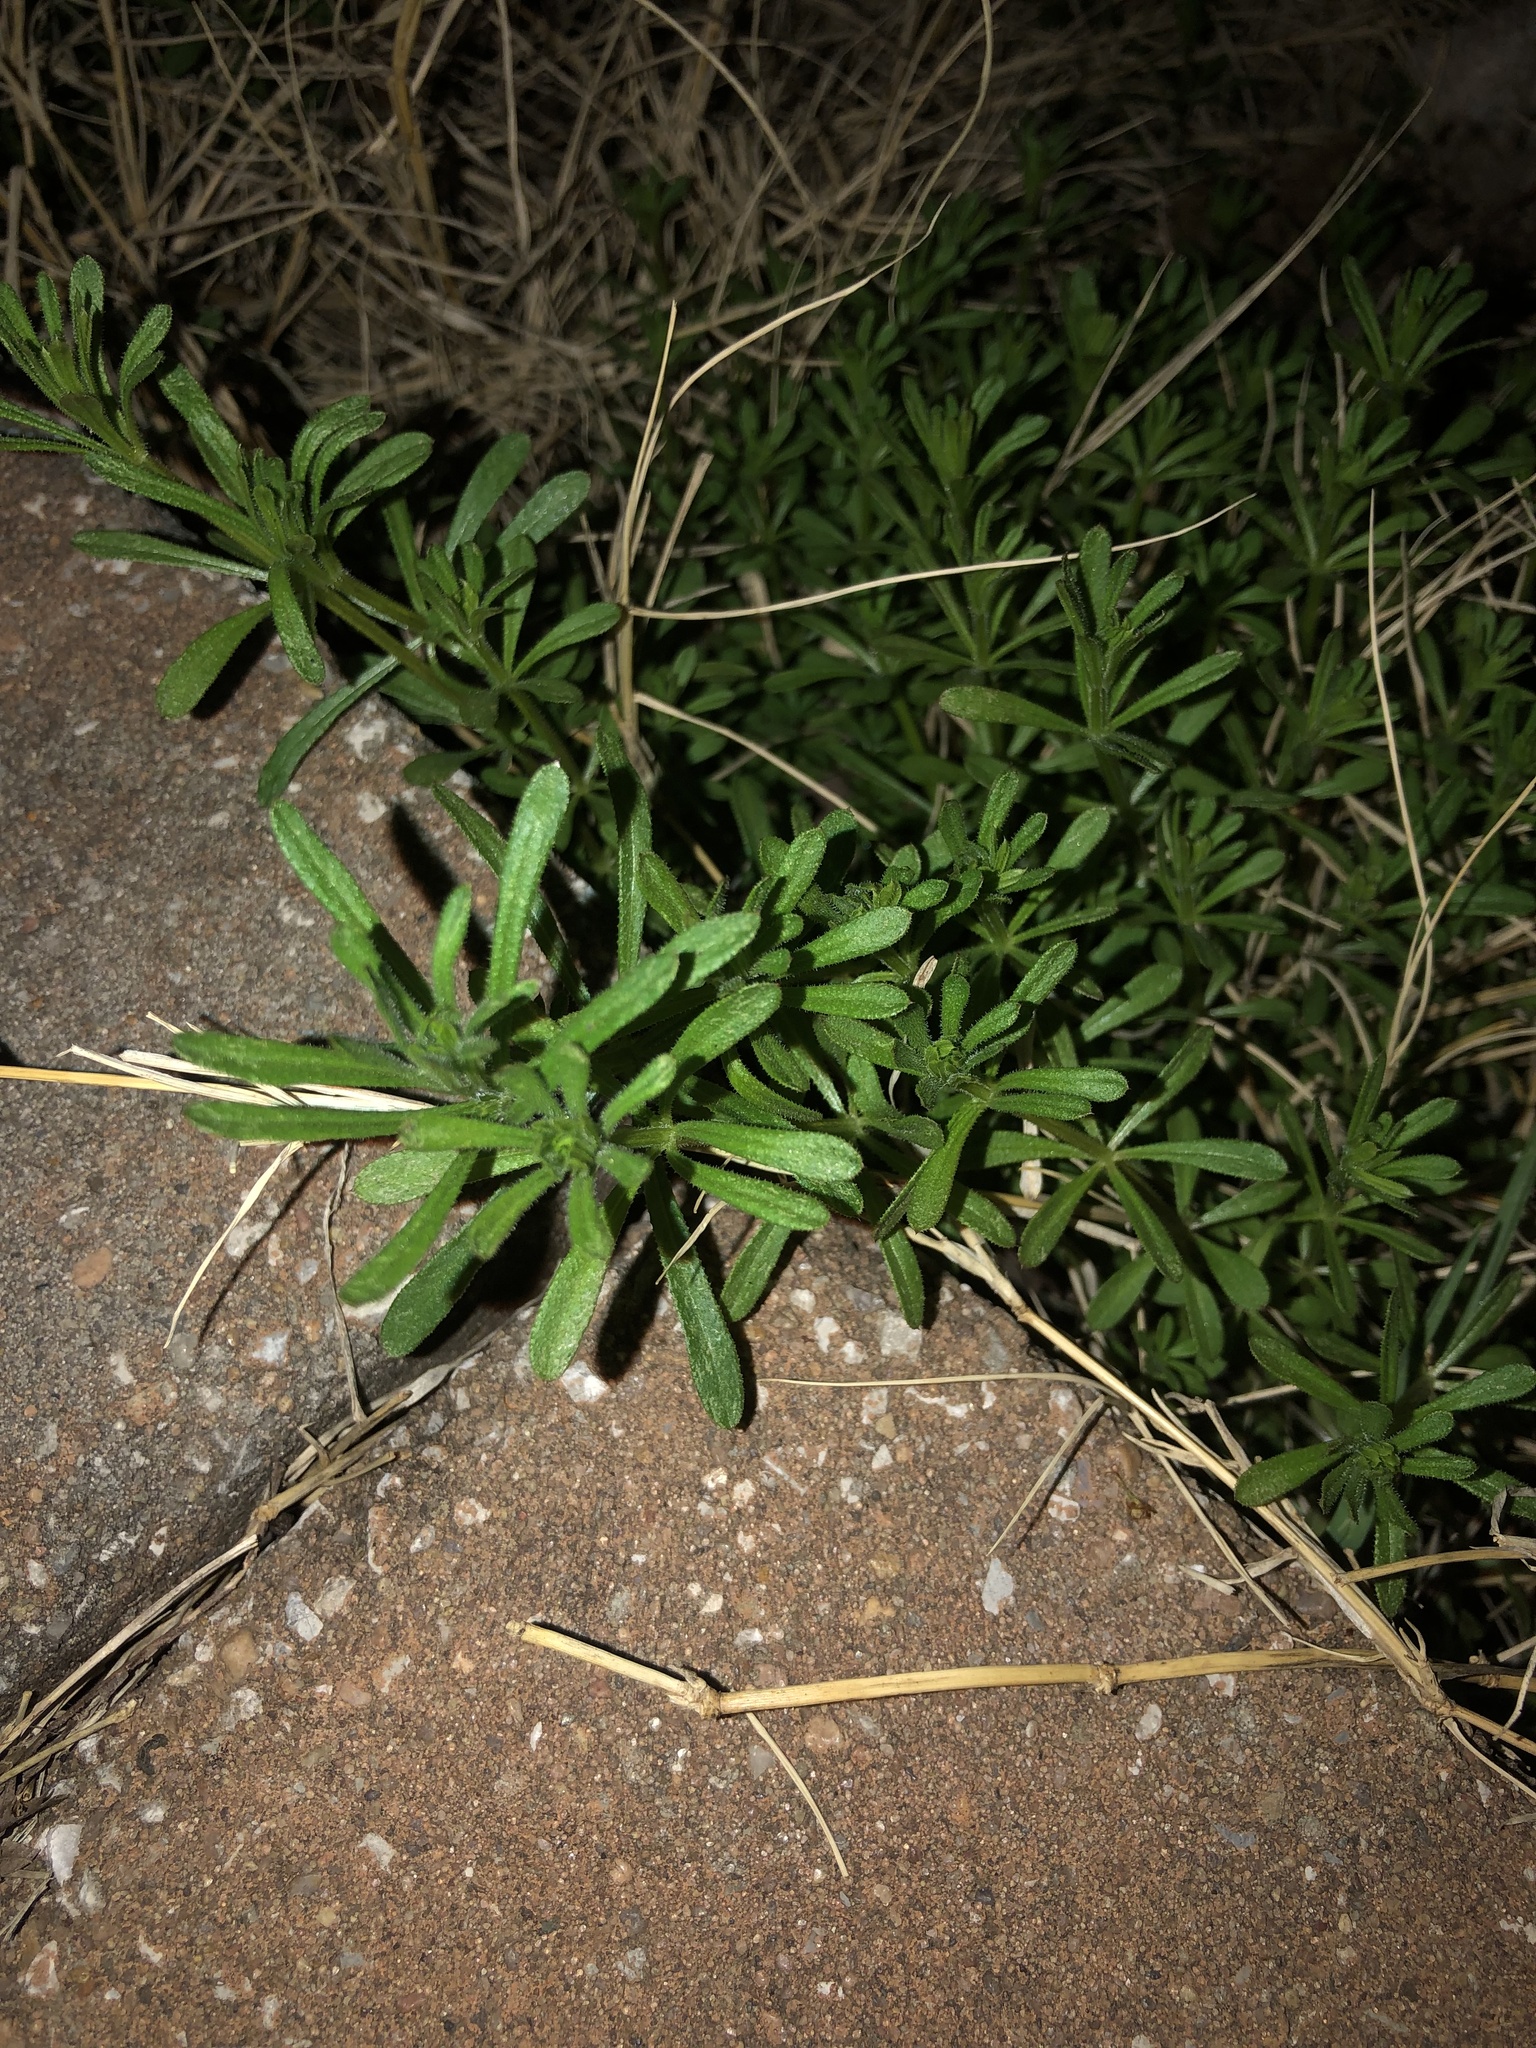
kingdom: Plantae
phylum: Tracheophyta
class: Magnoliopsida
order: Gentianales
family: Rubiaceae
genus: Galium
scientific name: Galium aparine
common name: Cleavers
